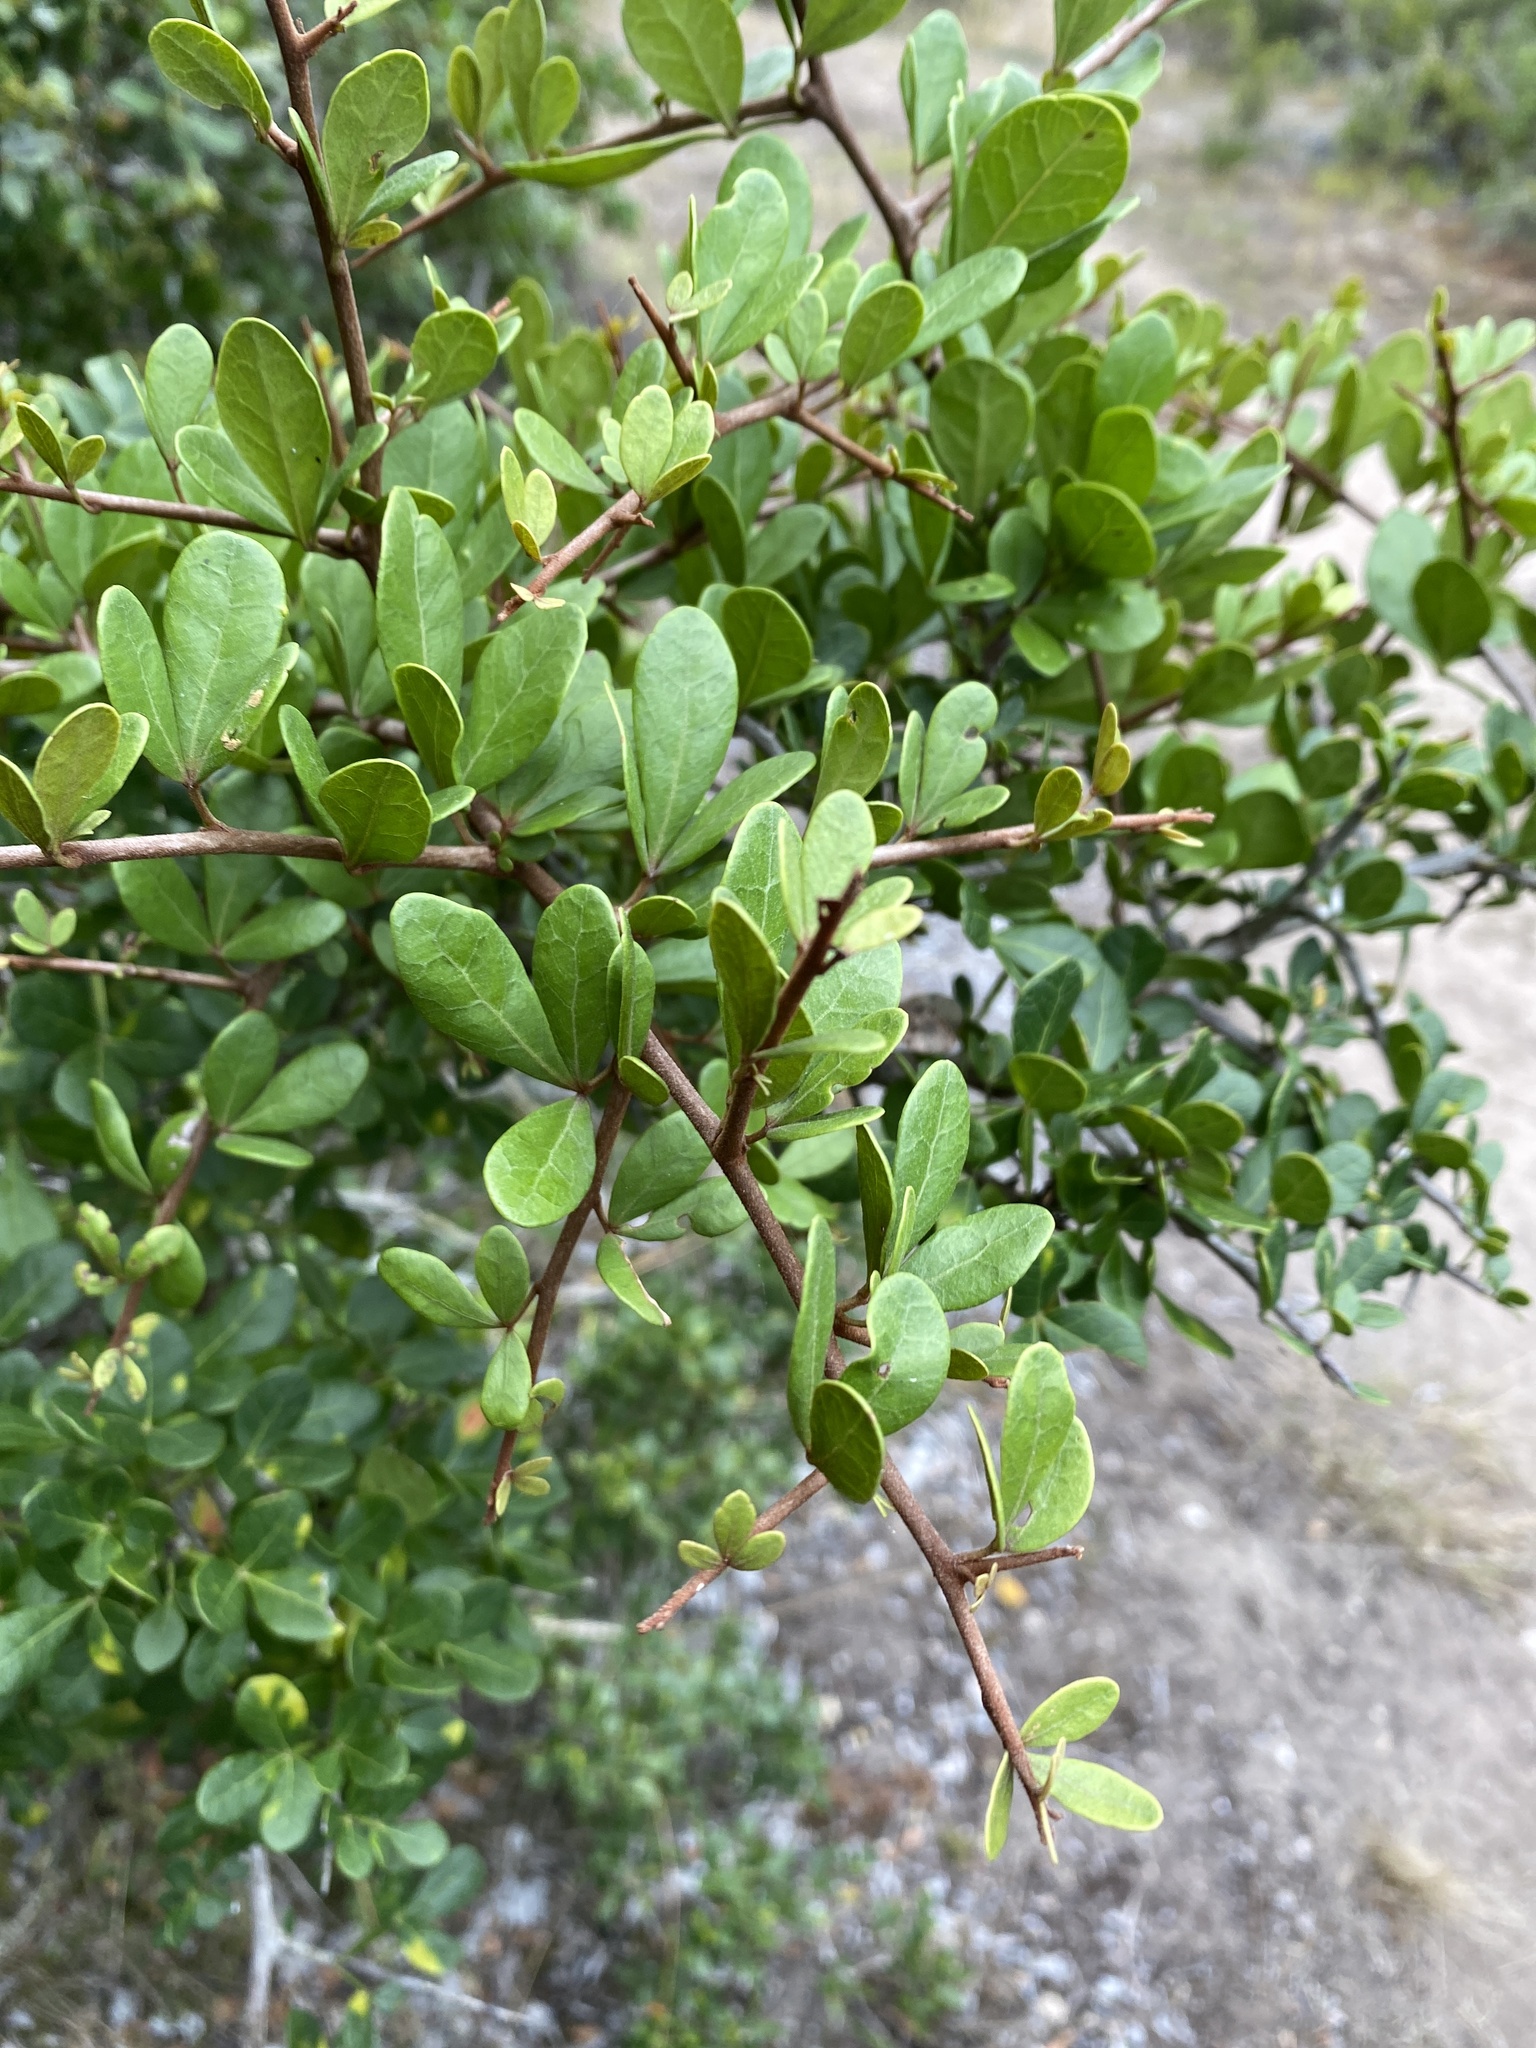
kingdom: Plantae
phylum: Tracheophyta
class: Magnoliopsida
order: Sapindales
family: Anacardiaceae
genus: Searsia
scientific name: Searsia pterota
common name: Winged currant
